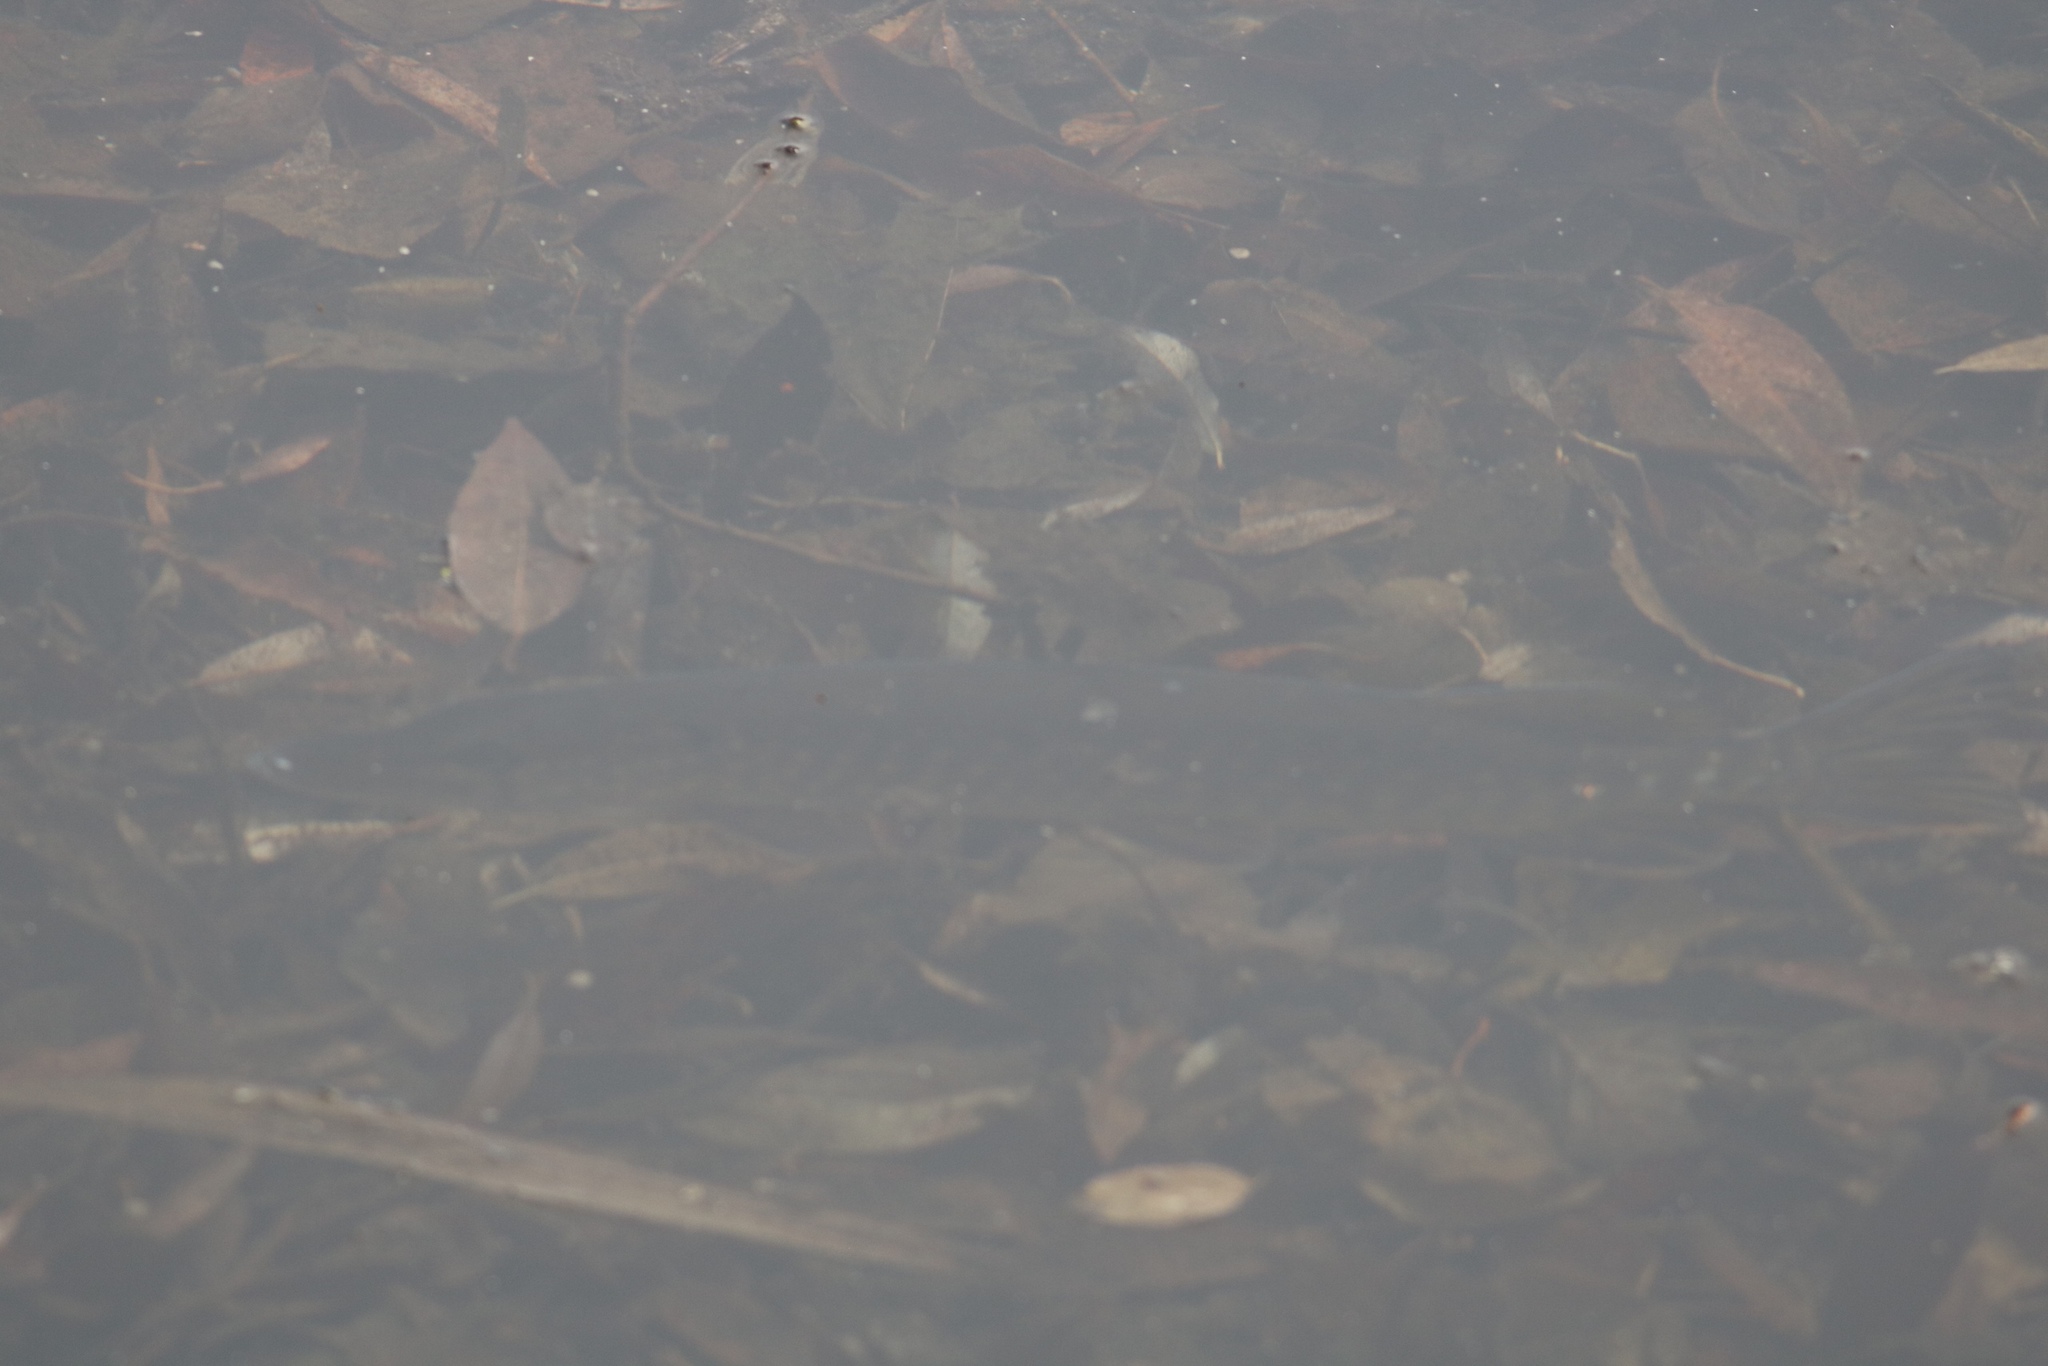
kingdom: Animalia
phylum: Chordata
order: Esociformes
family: Esocidae
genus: Esox
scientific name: Esox lucius
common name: Northern pike
